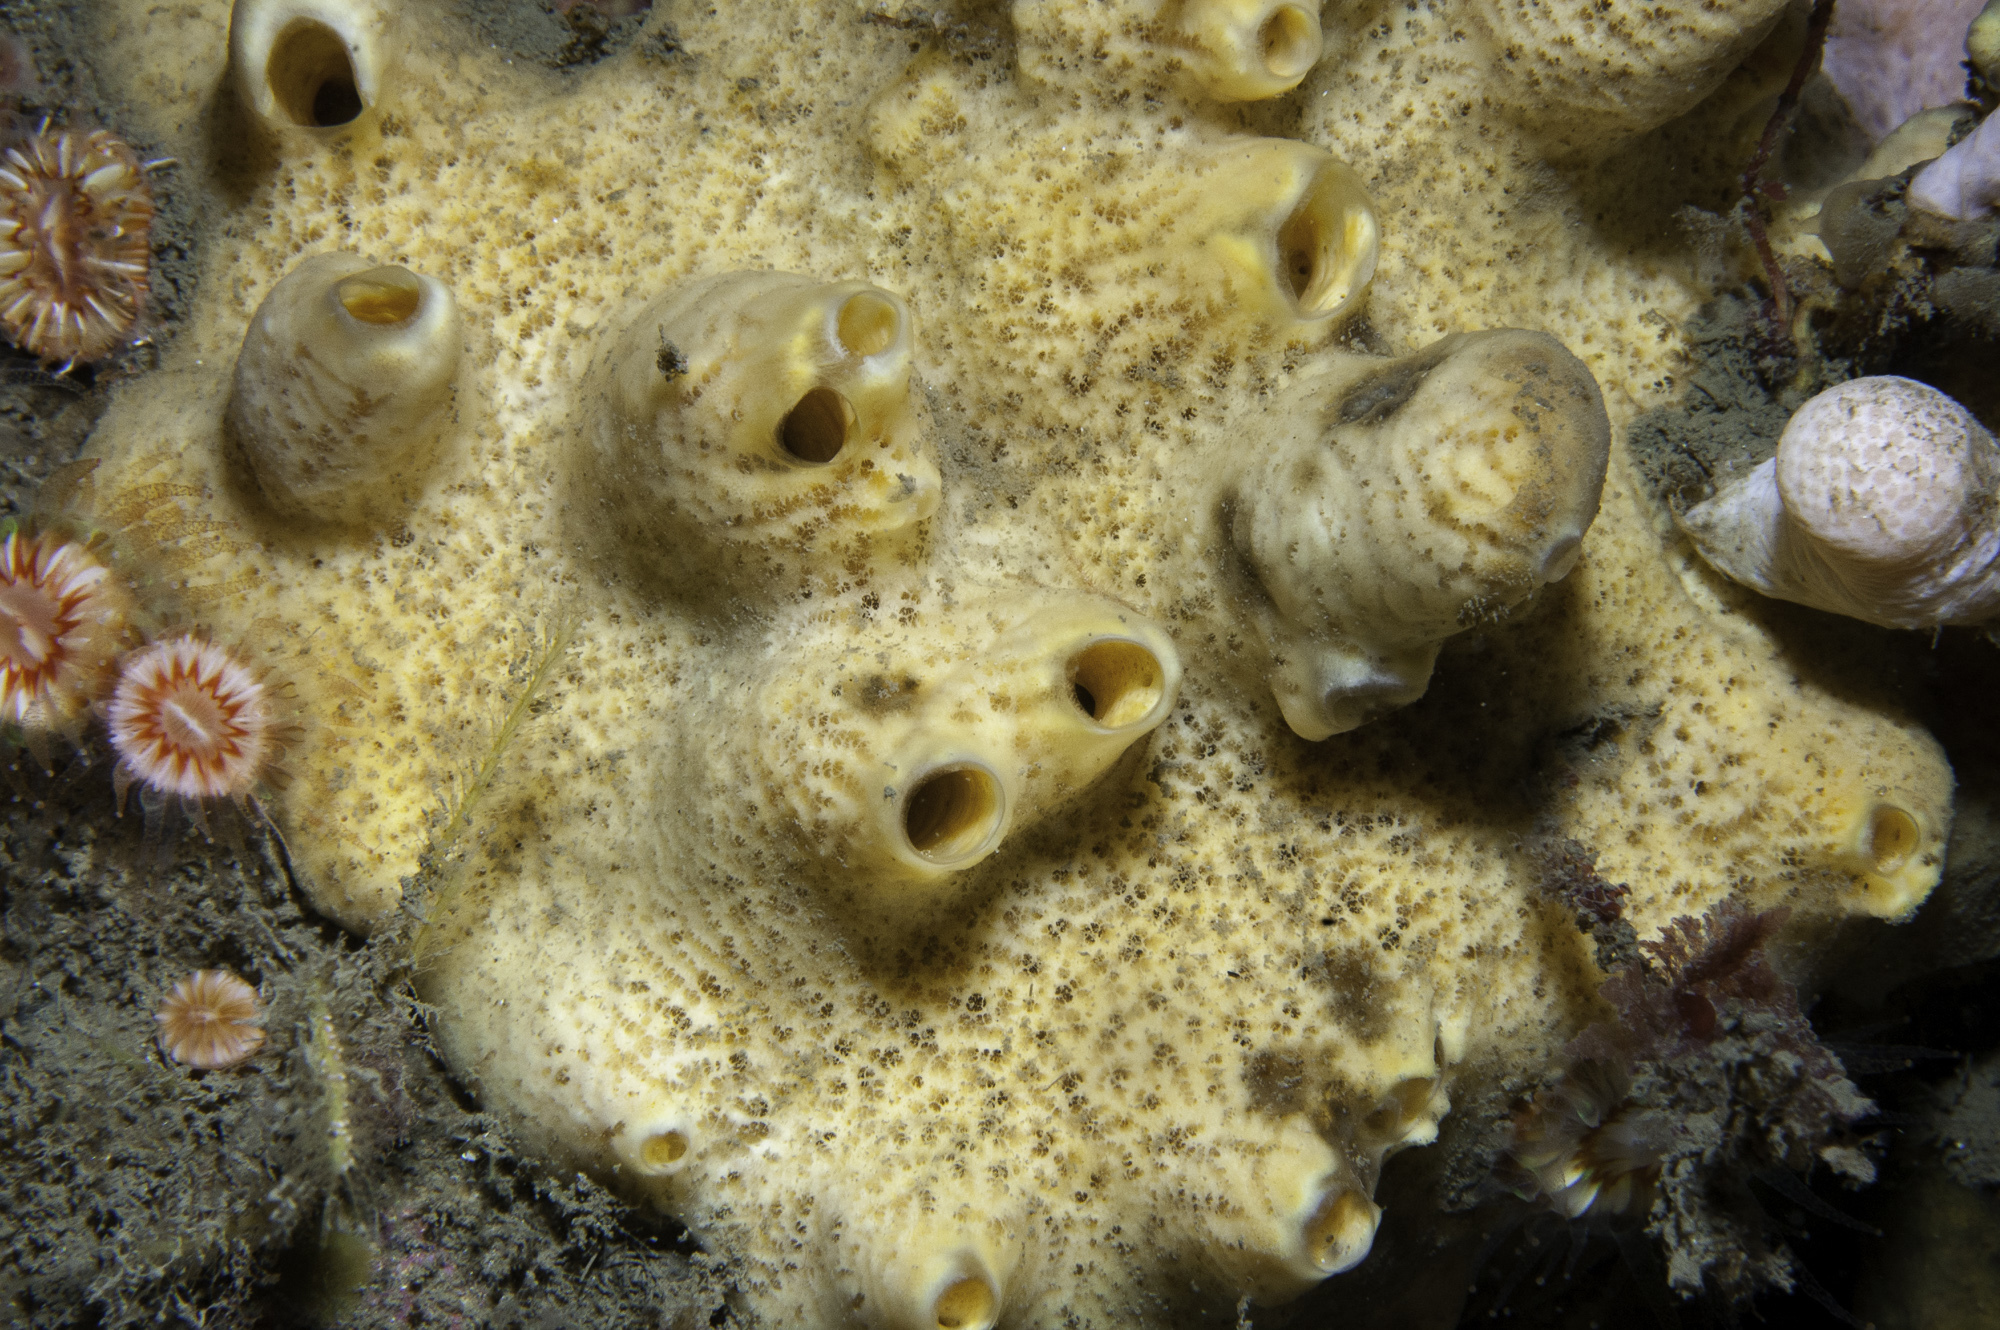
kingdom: Animalia
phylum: Porifera
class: Demospongiae
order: Poecilosclerida
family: Myxillidae
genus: Myxilla
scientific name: Myxilla incrustans
